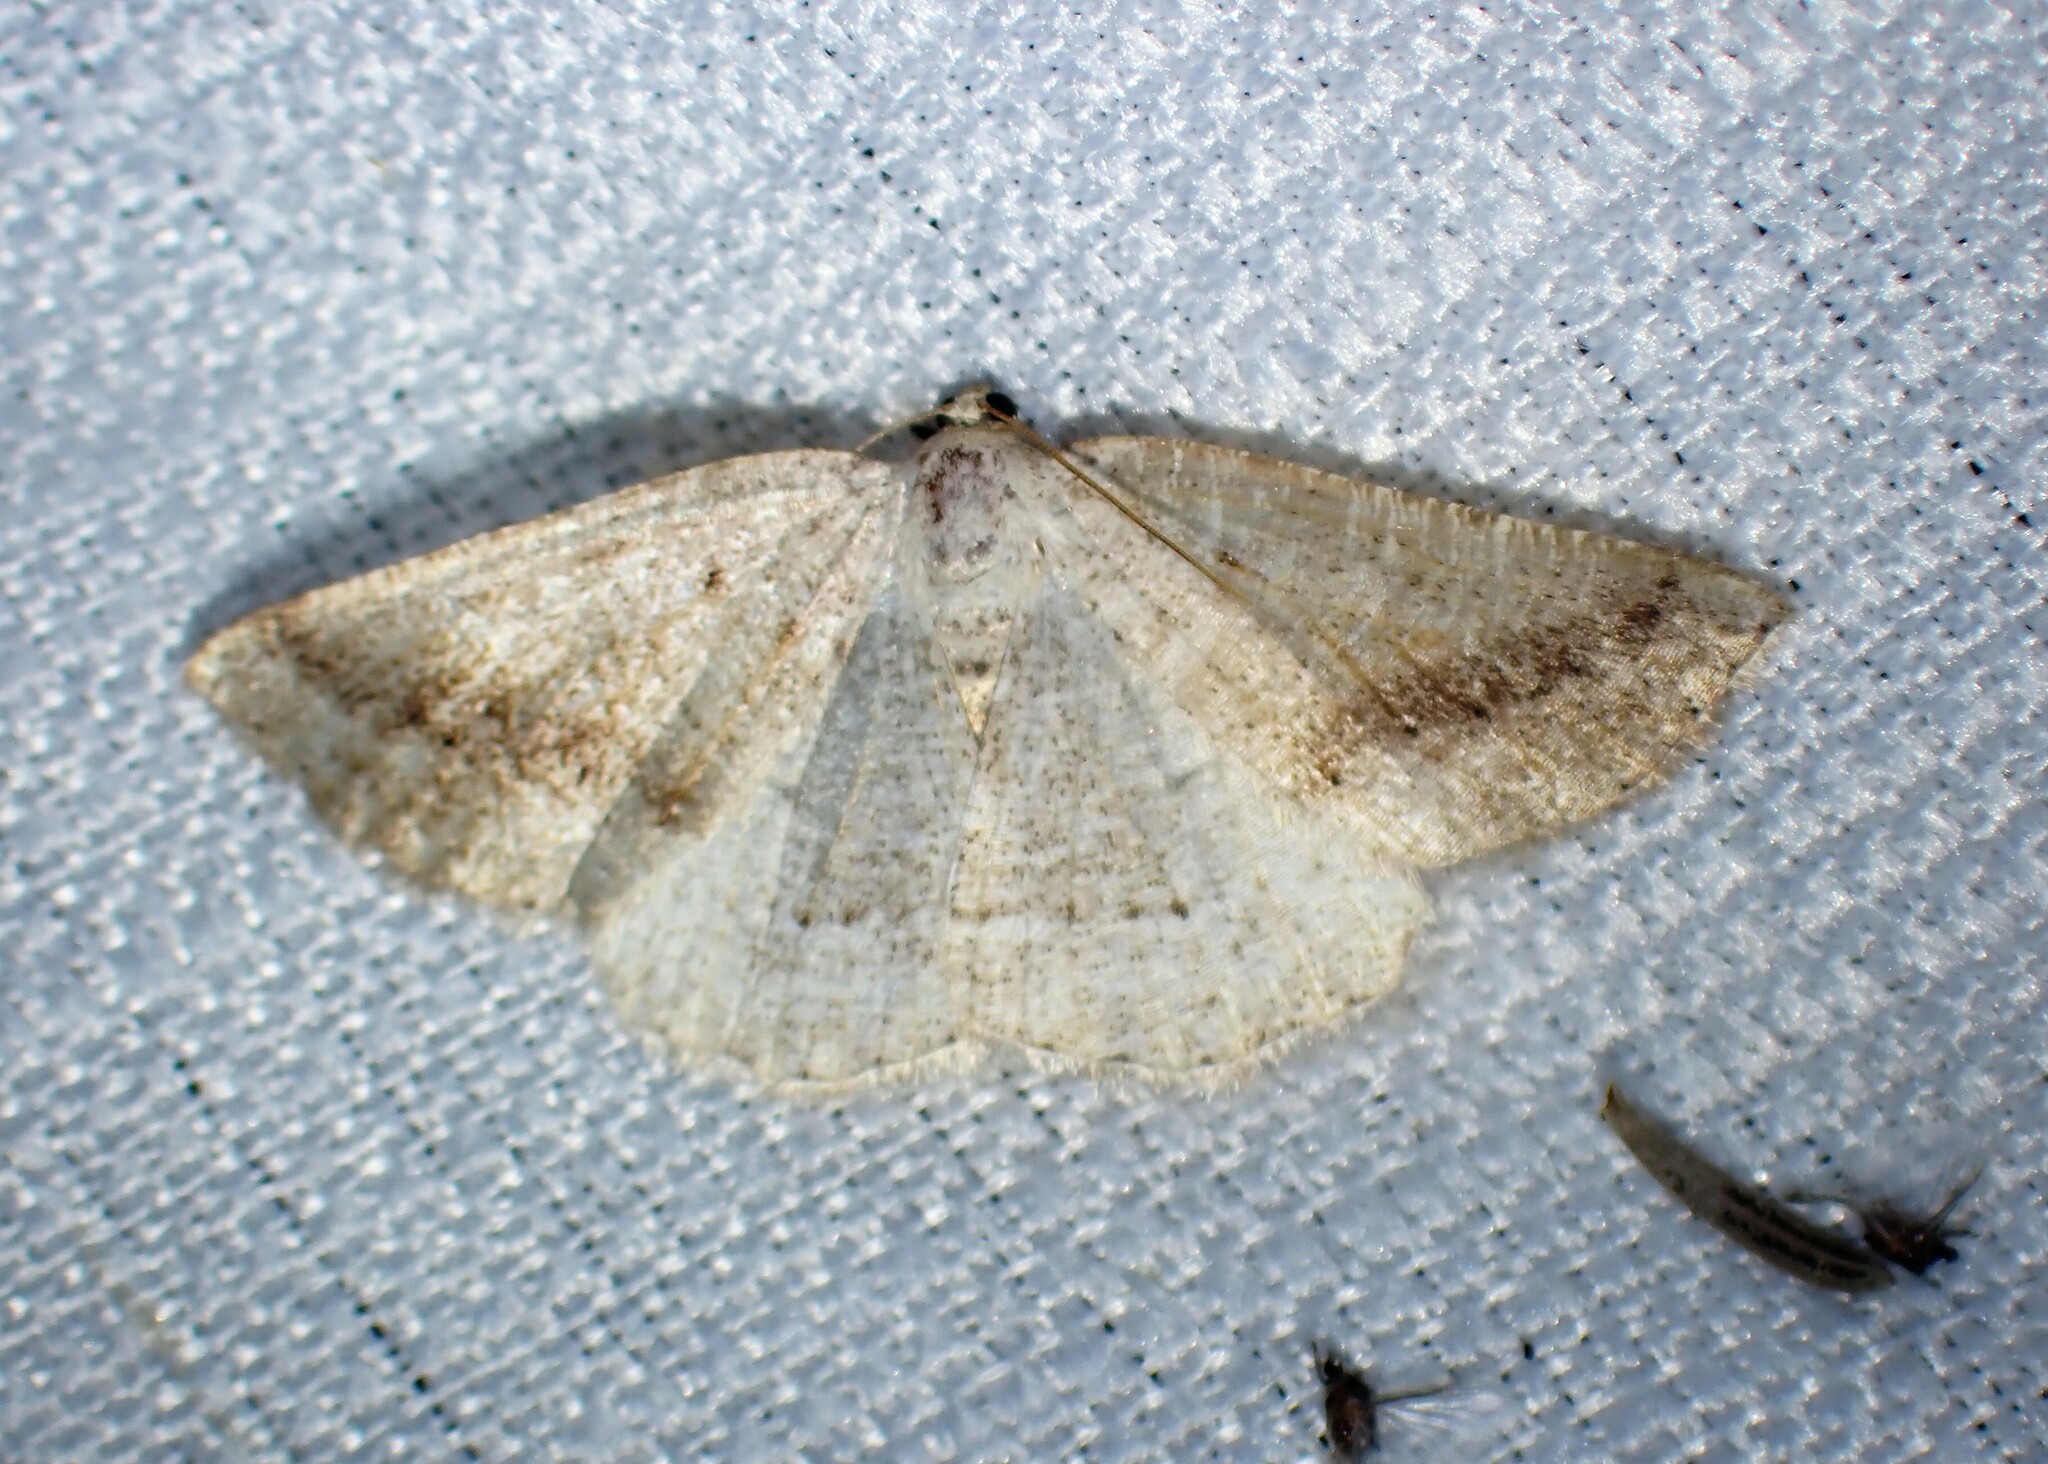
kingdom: Animalia
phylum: Arthropoda
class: Insecta
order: Lepidoptera
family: Geometridae
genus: Tacparia
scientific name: Tacparia detersata
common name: Pale alder moth
